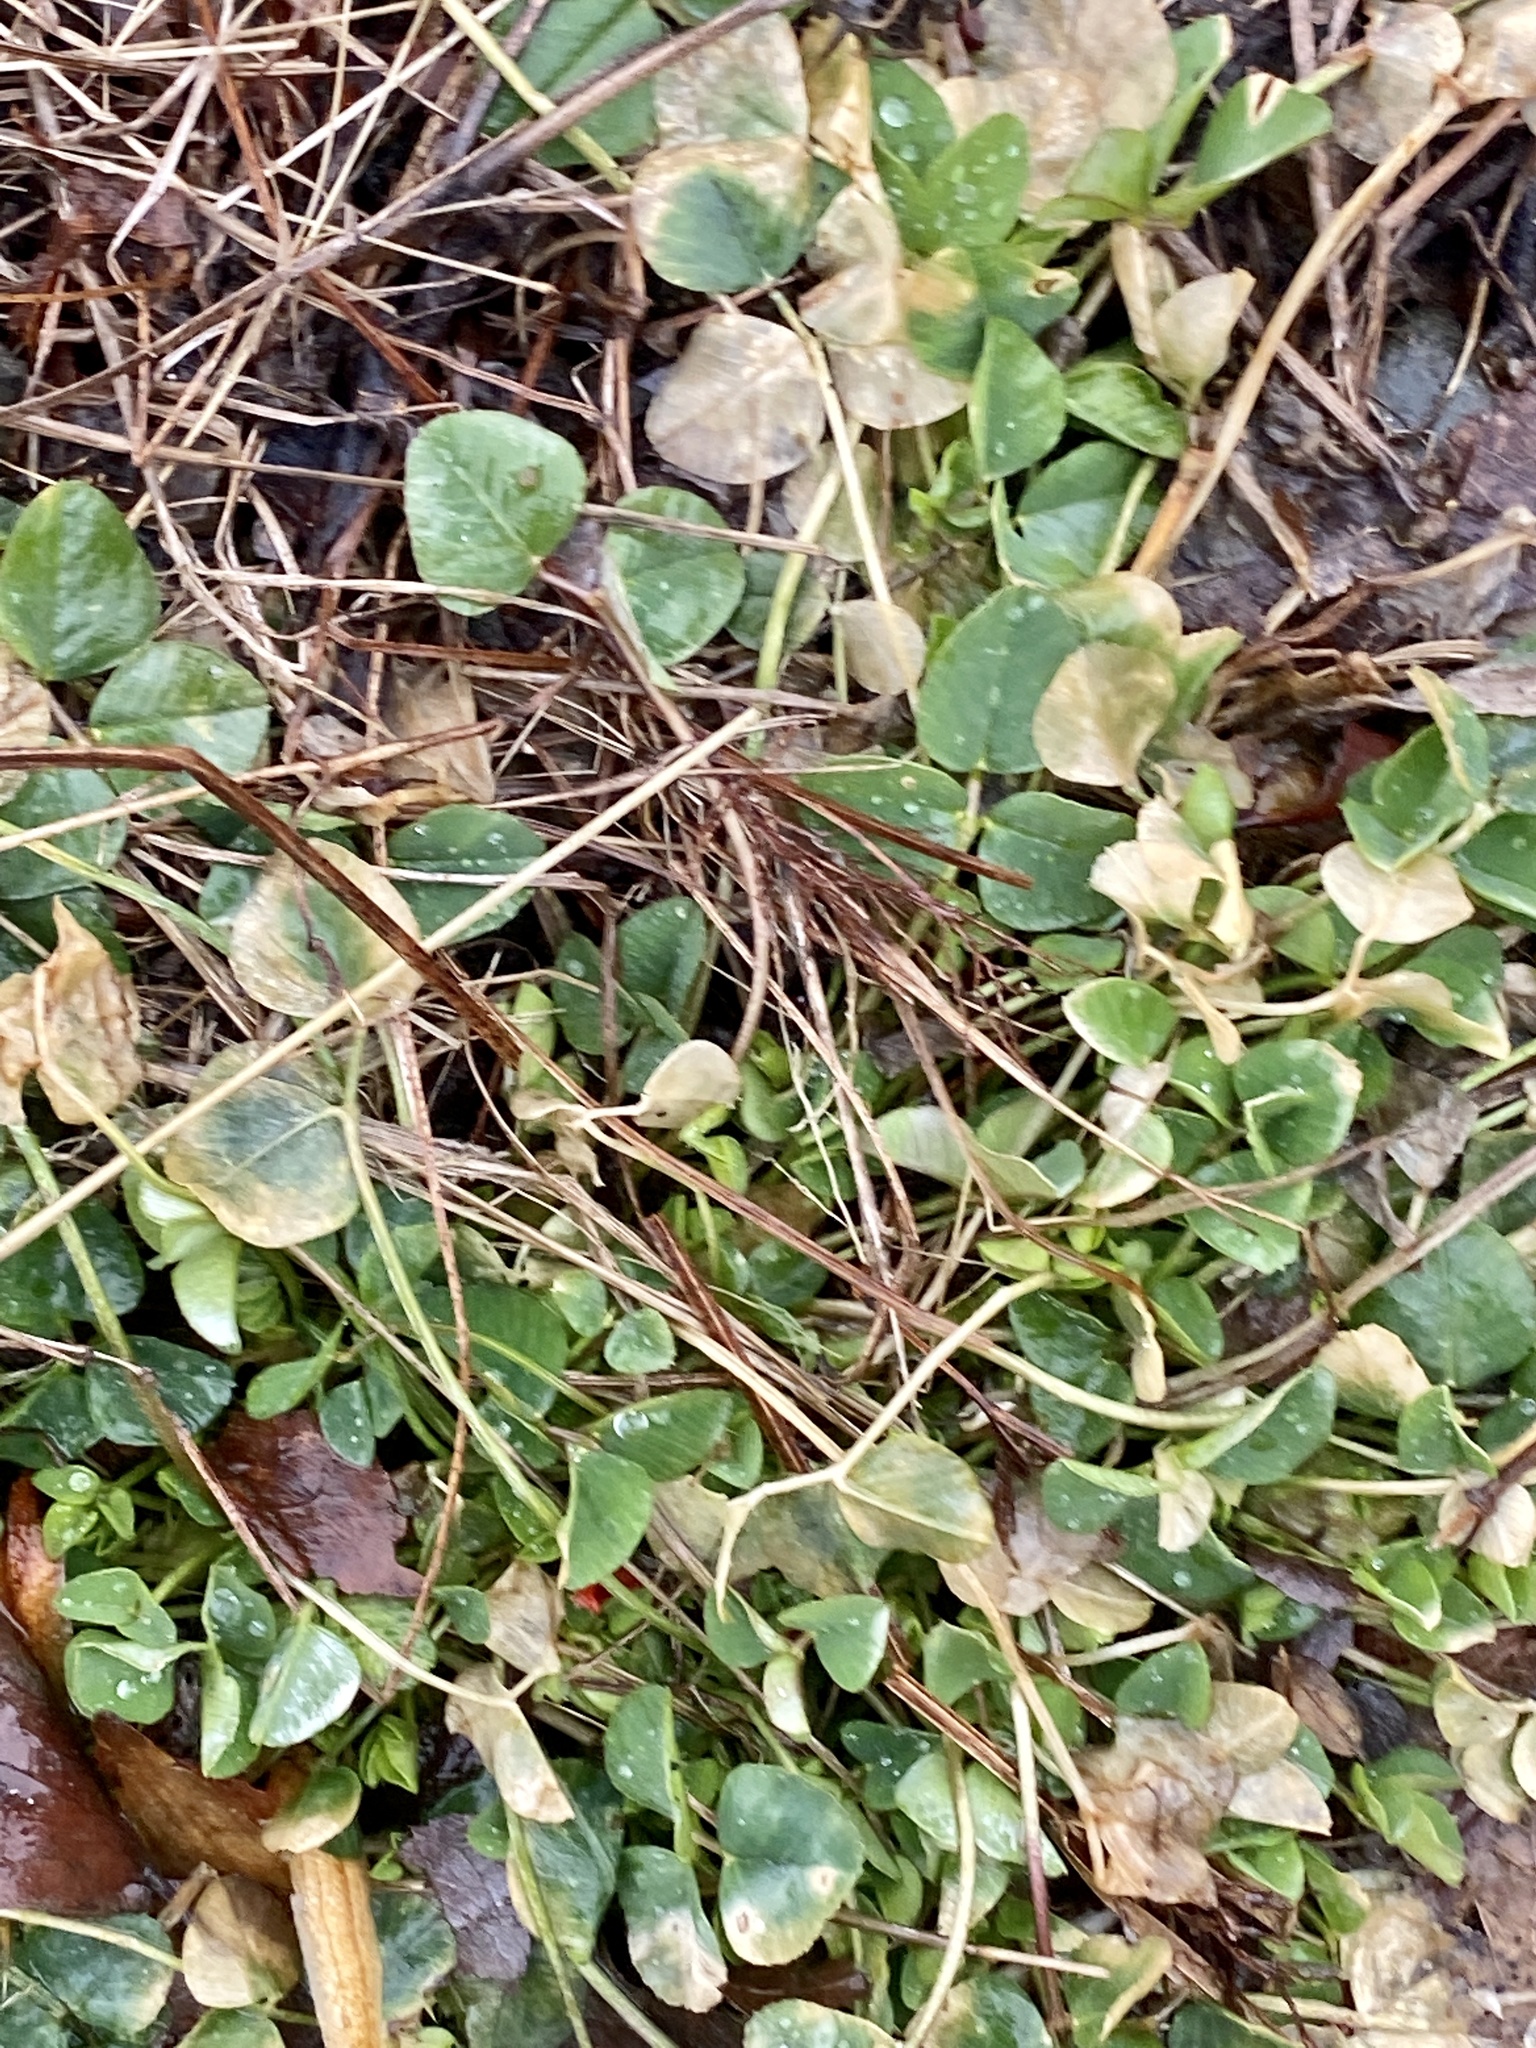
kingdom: Plantae
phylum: Tracheophyta
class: Magnoliopsida
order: Fabales
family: Fabaceae
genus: Medicago
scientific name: Medicago lupulina
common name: Black medick
